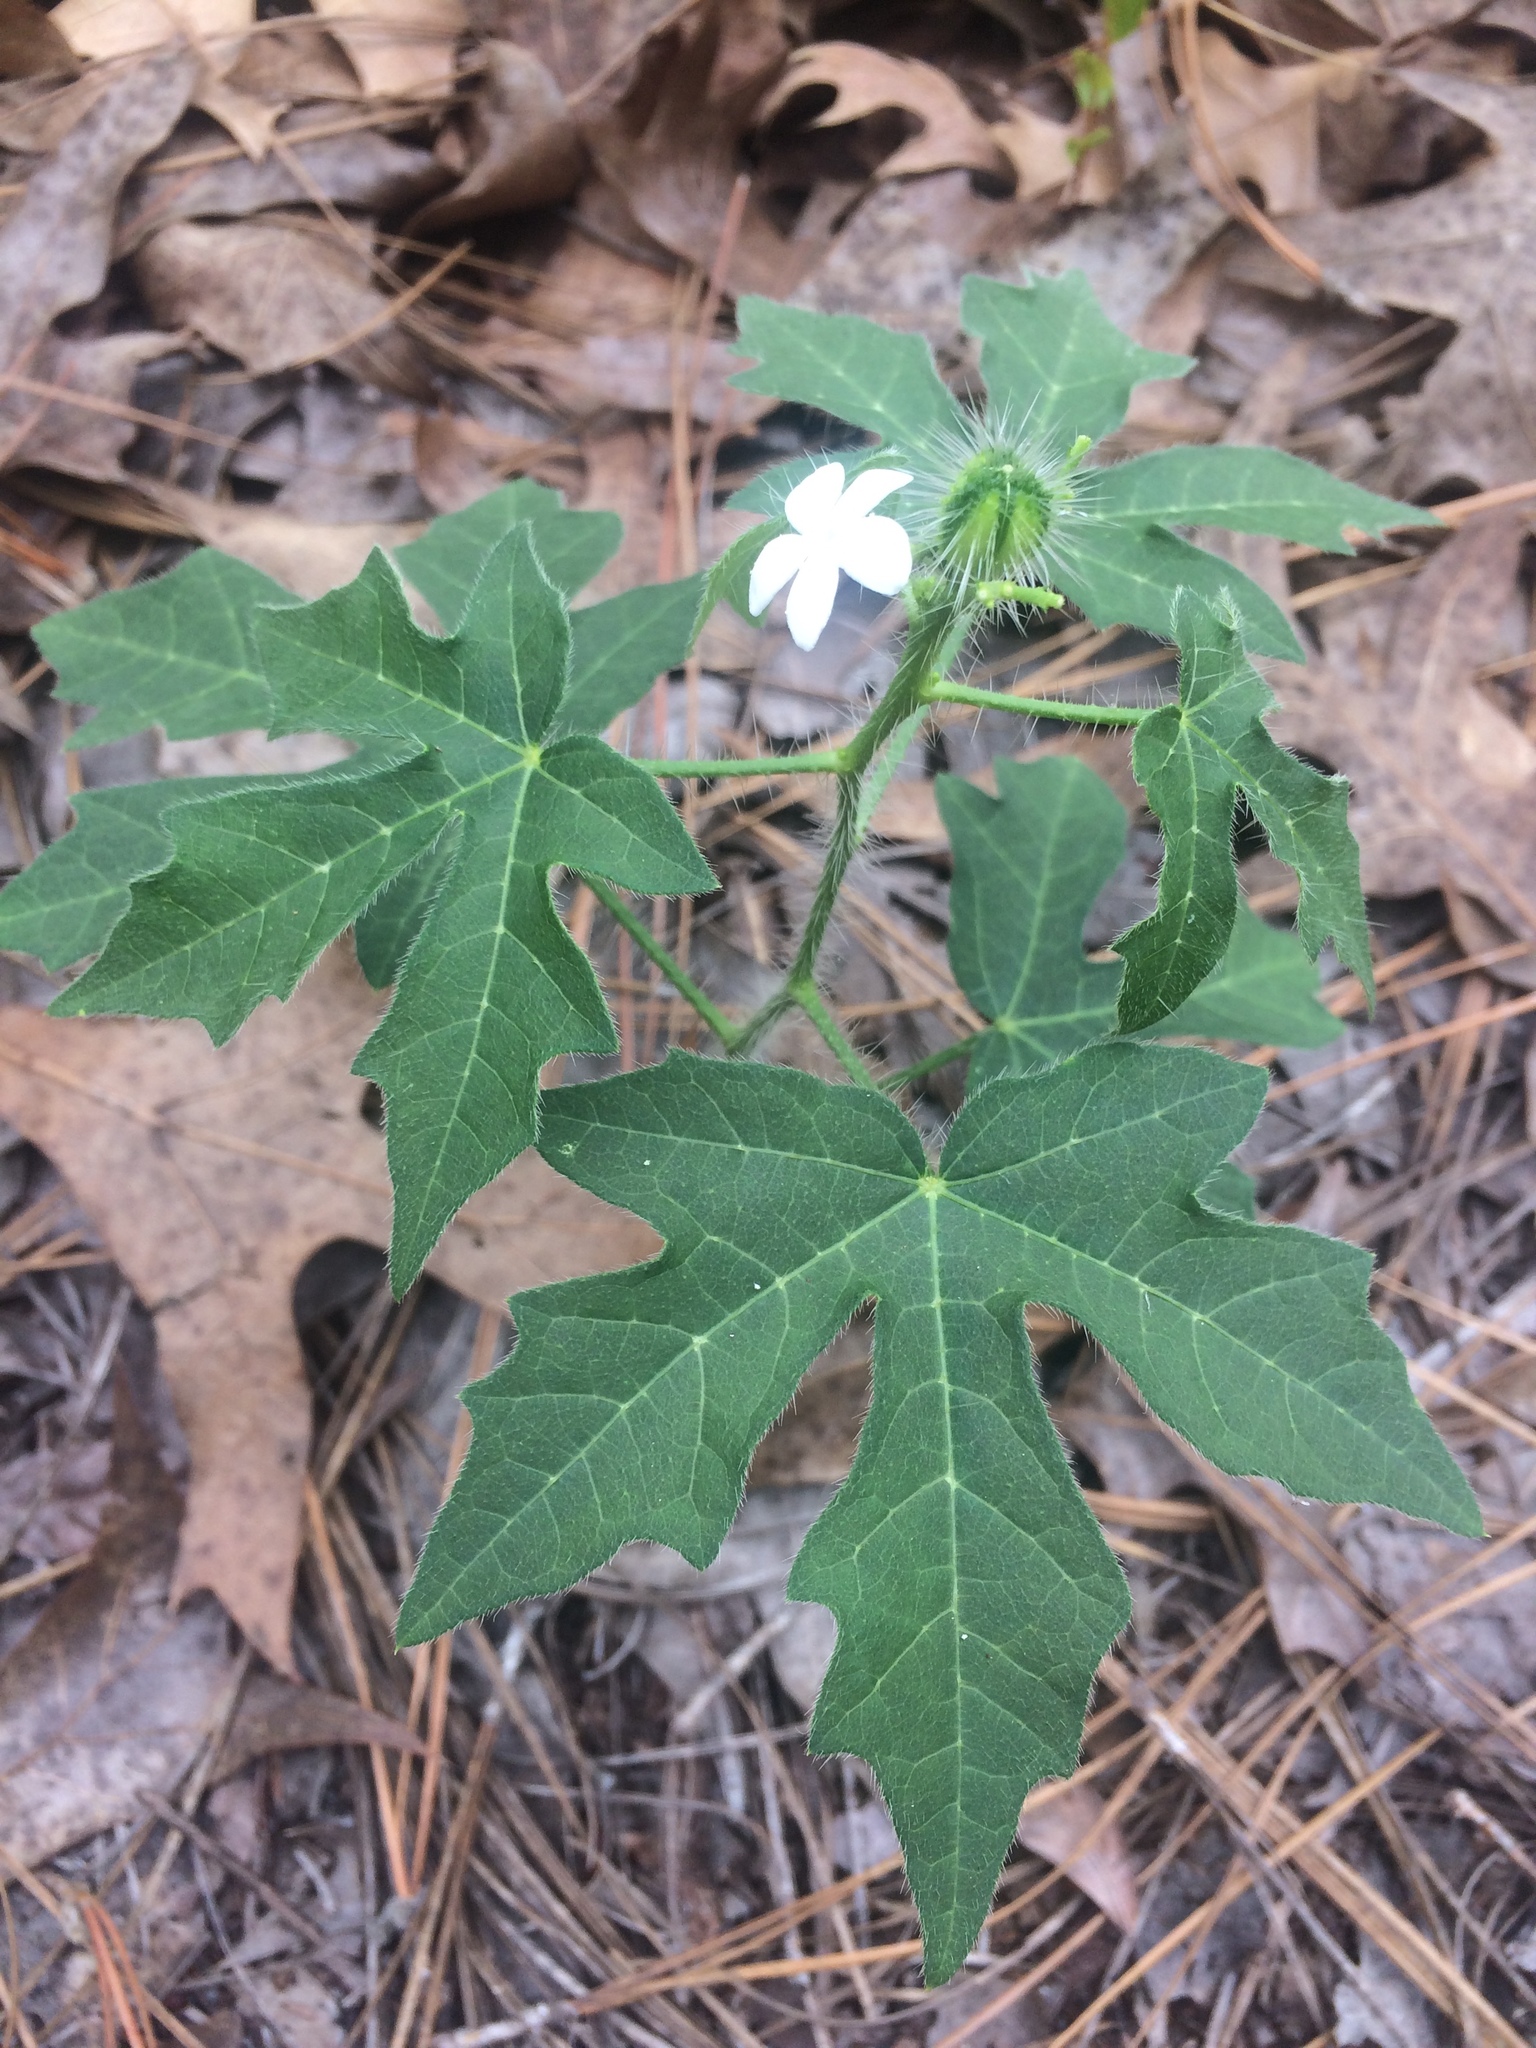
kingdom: Plantae
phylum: Tracheophyta
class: Magnoliopsida
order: Malpighiales
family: Euphorbiaceae
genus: Cnidoscolus
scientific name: Cnidoscolus stimulosus
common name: Bull-nettle
